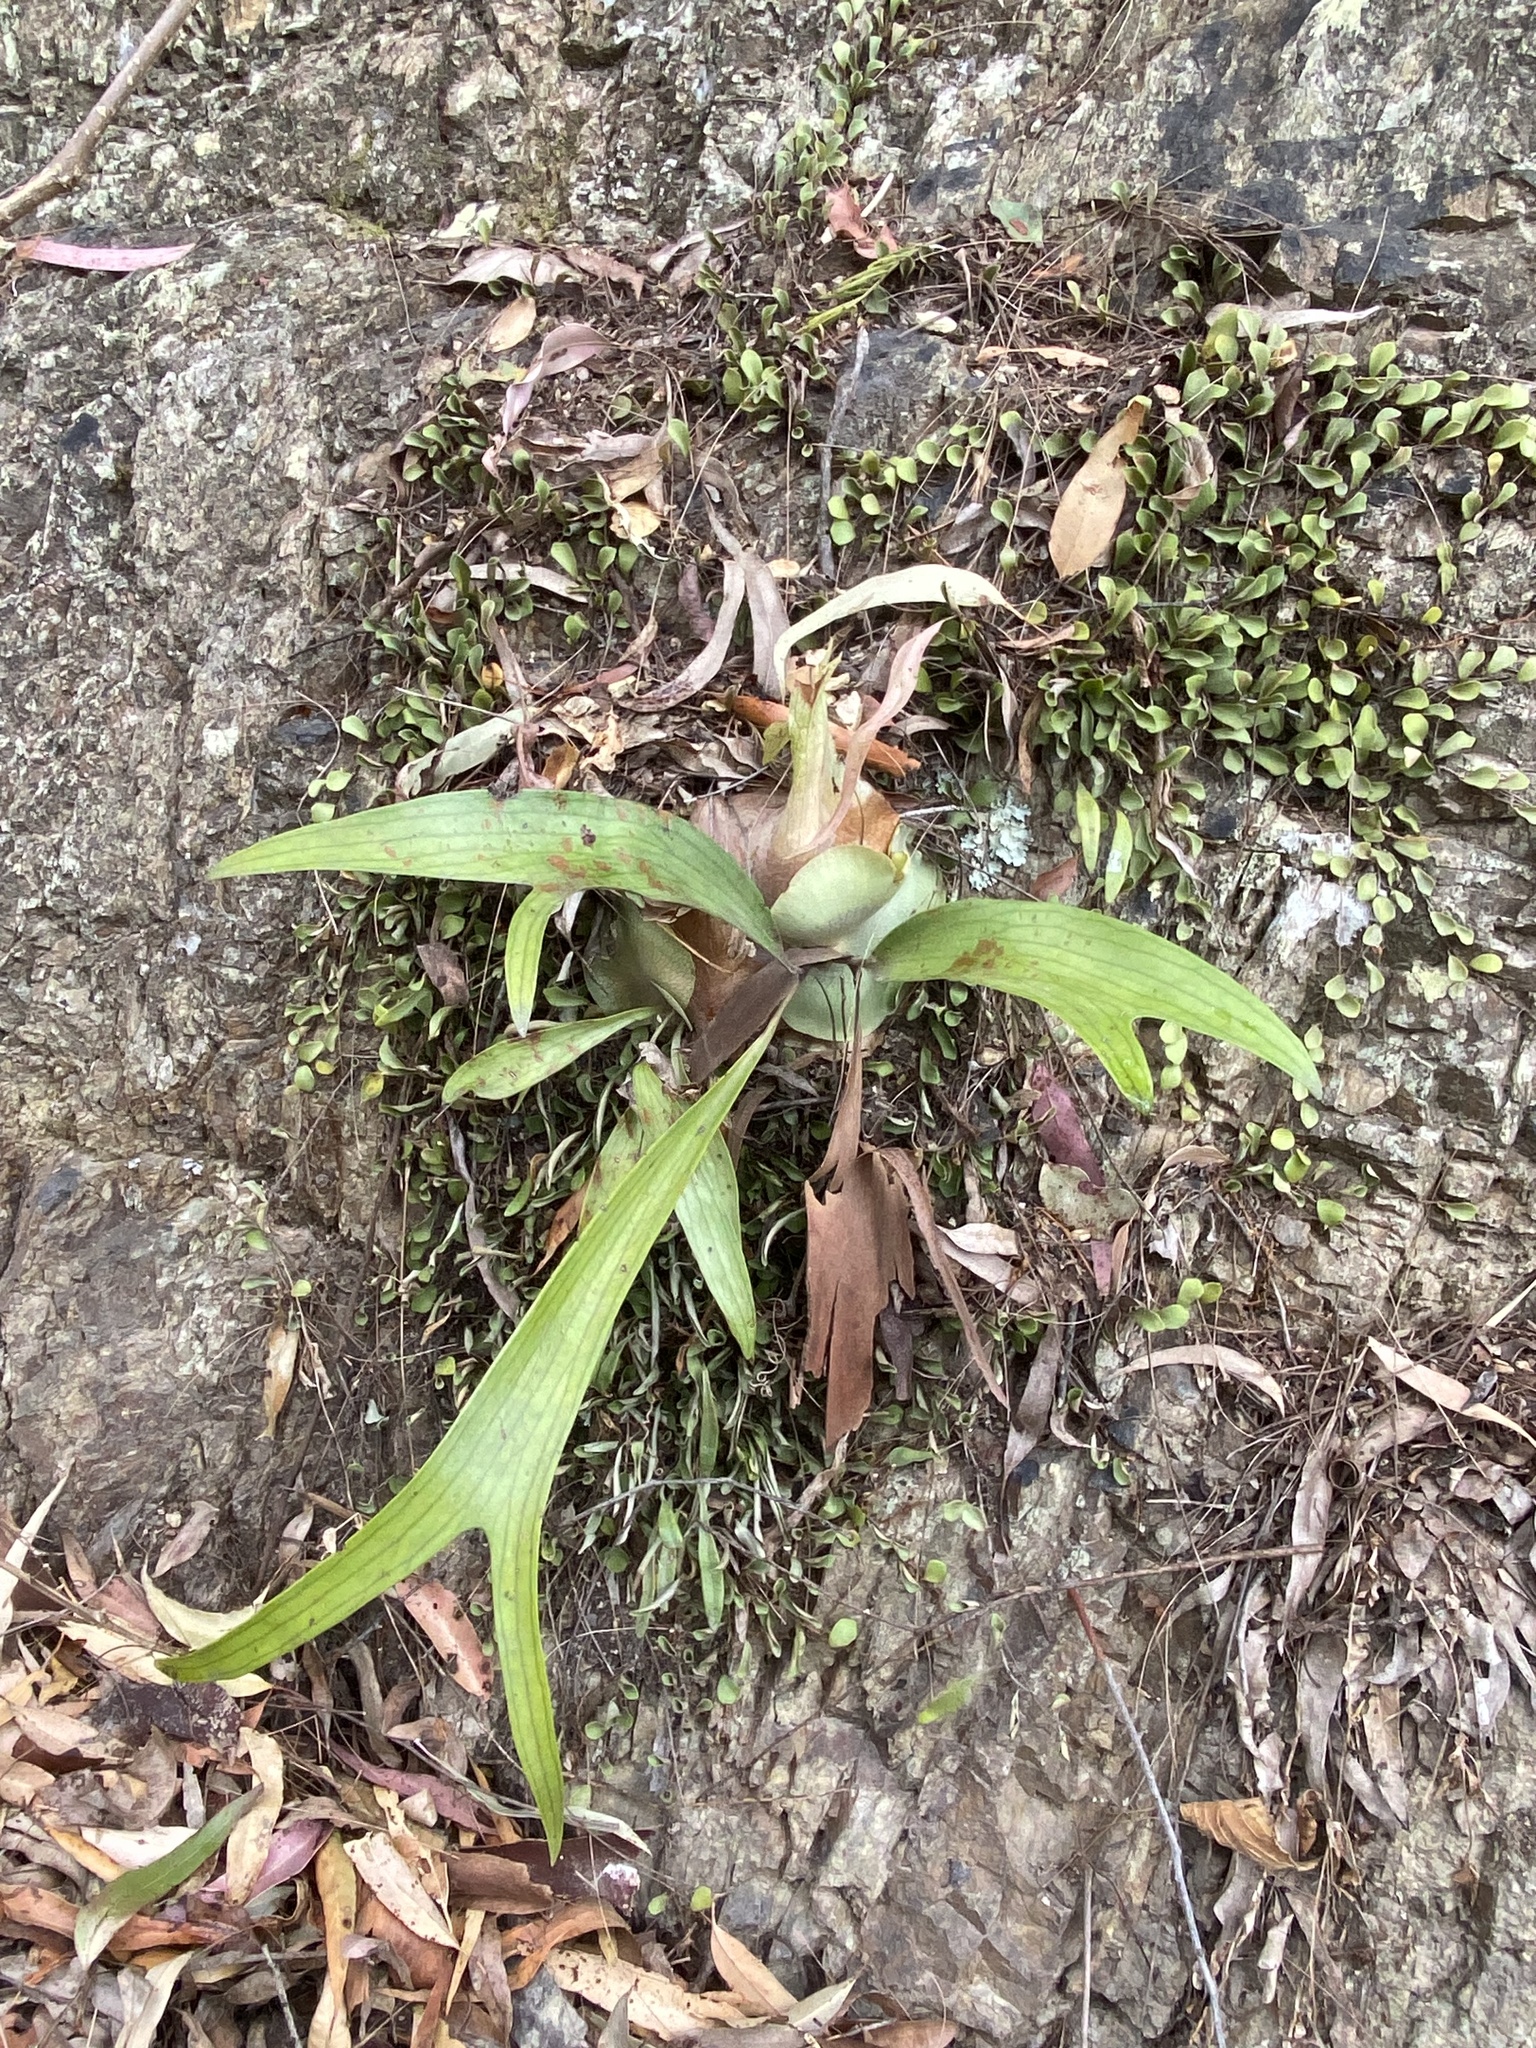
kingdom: Plantae
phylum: Tracheophyta
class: Polypodiopsida
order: Polypodiales
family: Polypodiaceae
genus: Platycerium
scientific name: Platycerium bifurcatum
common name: Elkhorn fern
